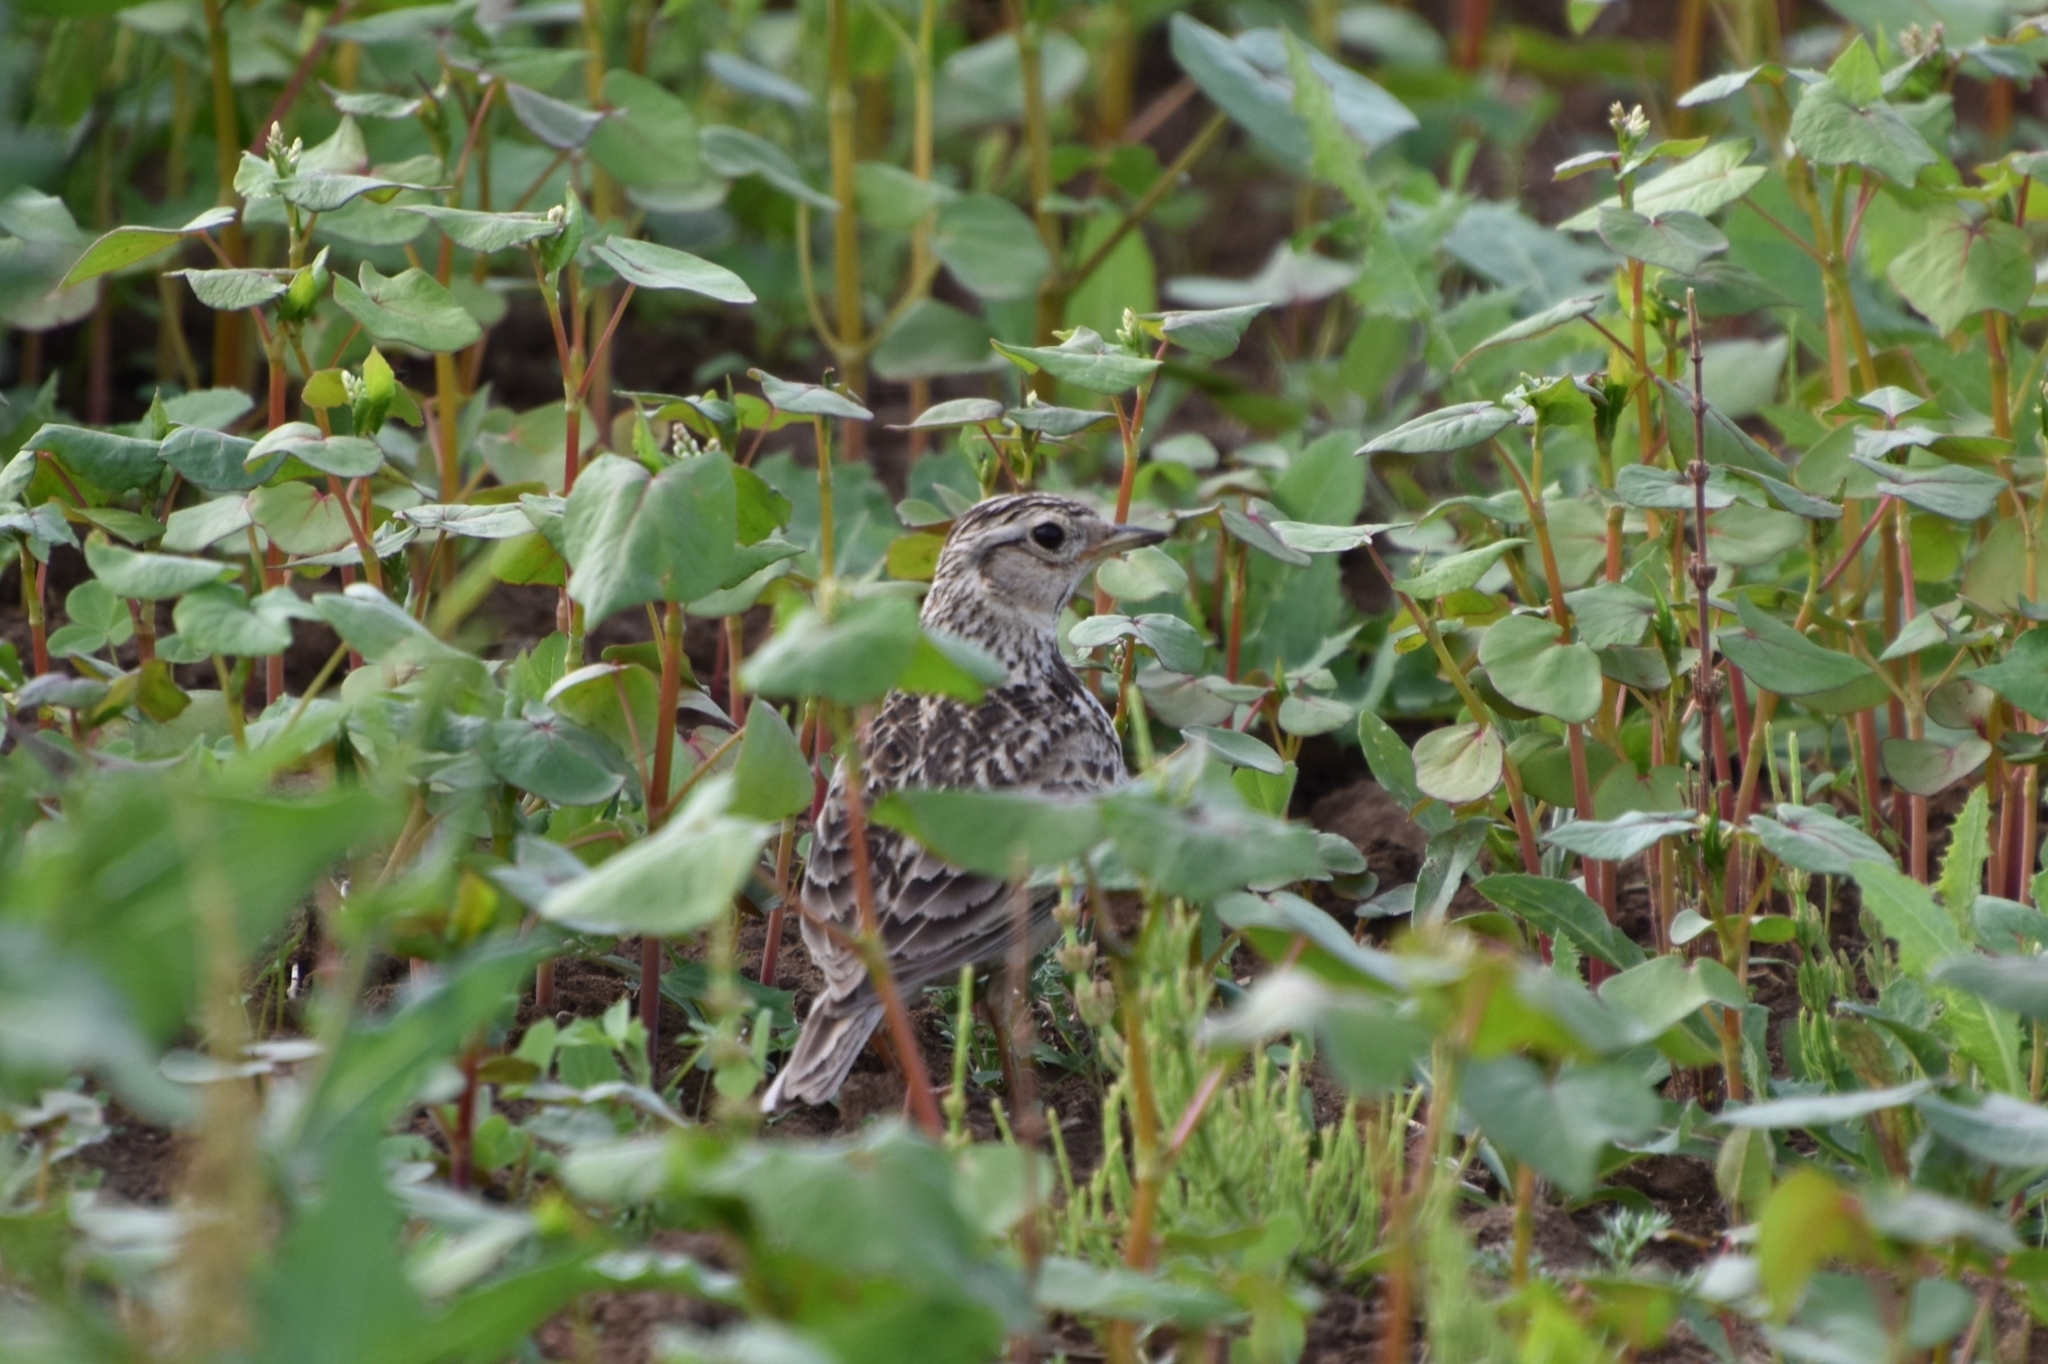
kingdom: Animalia
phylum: Chordata
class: Aves
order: Passeriformes
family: Alaudidae
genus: Alauda
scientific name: Alauda arvensis
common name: Eurasian skylark
